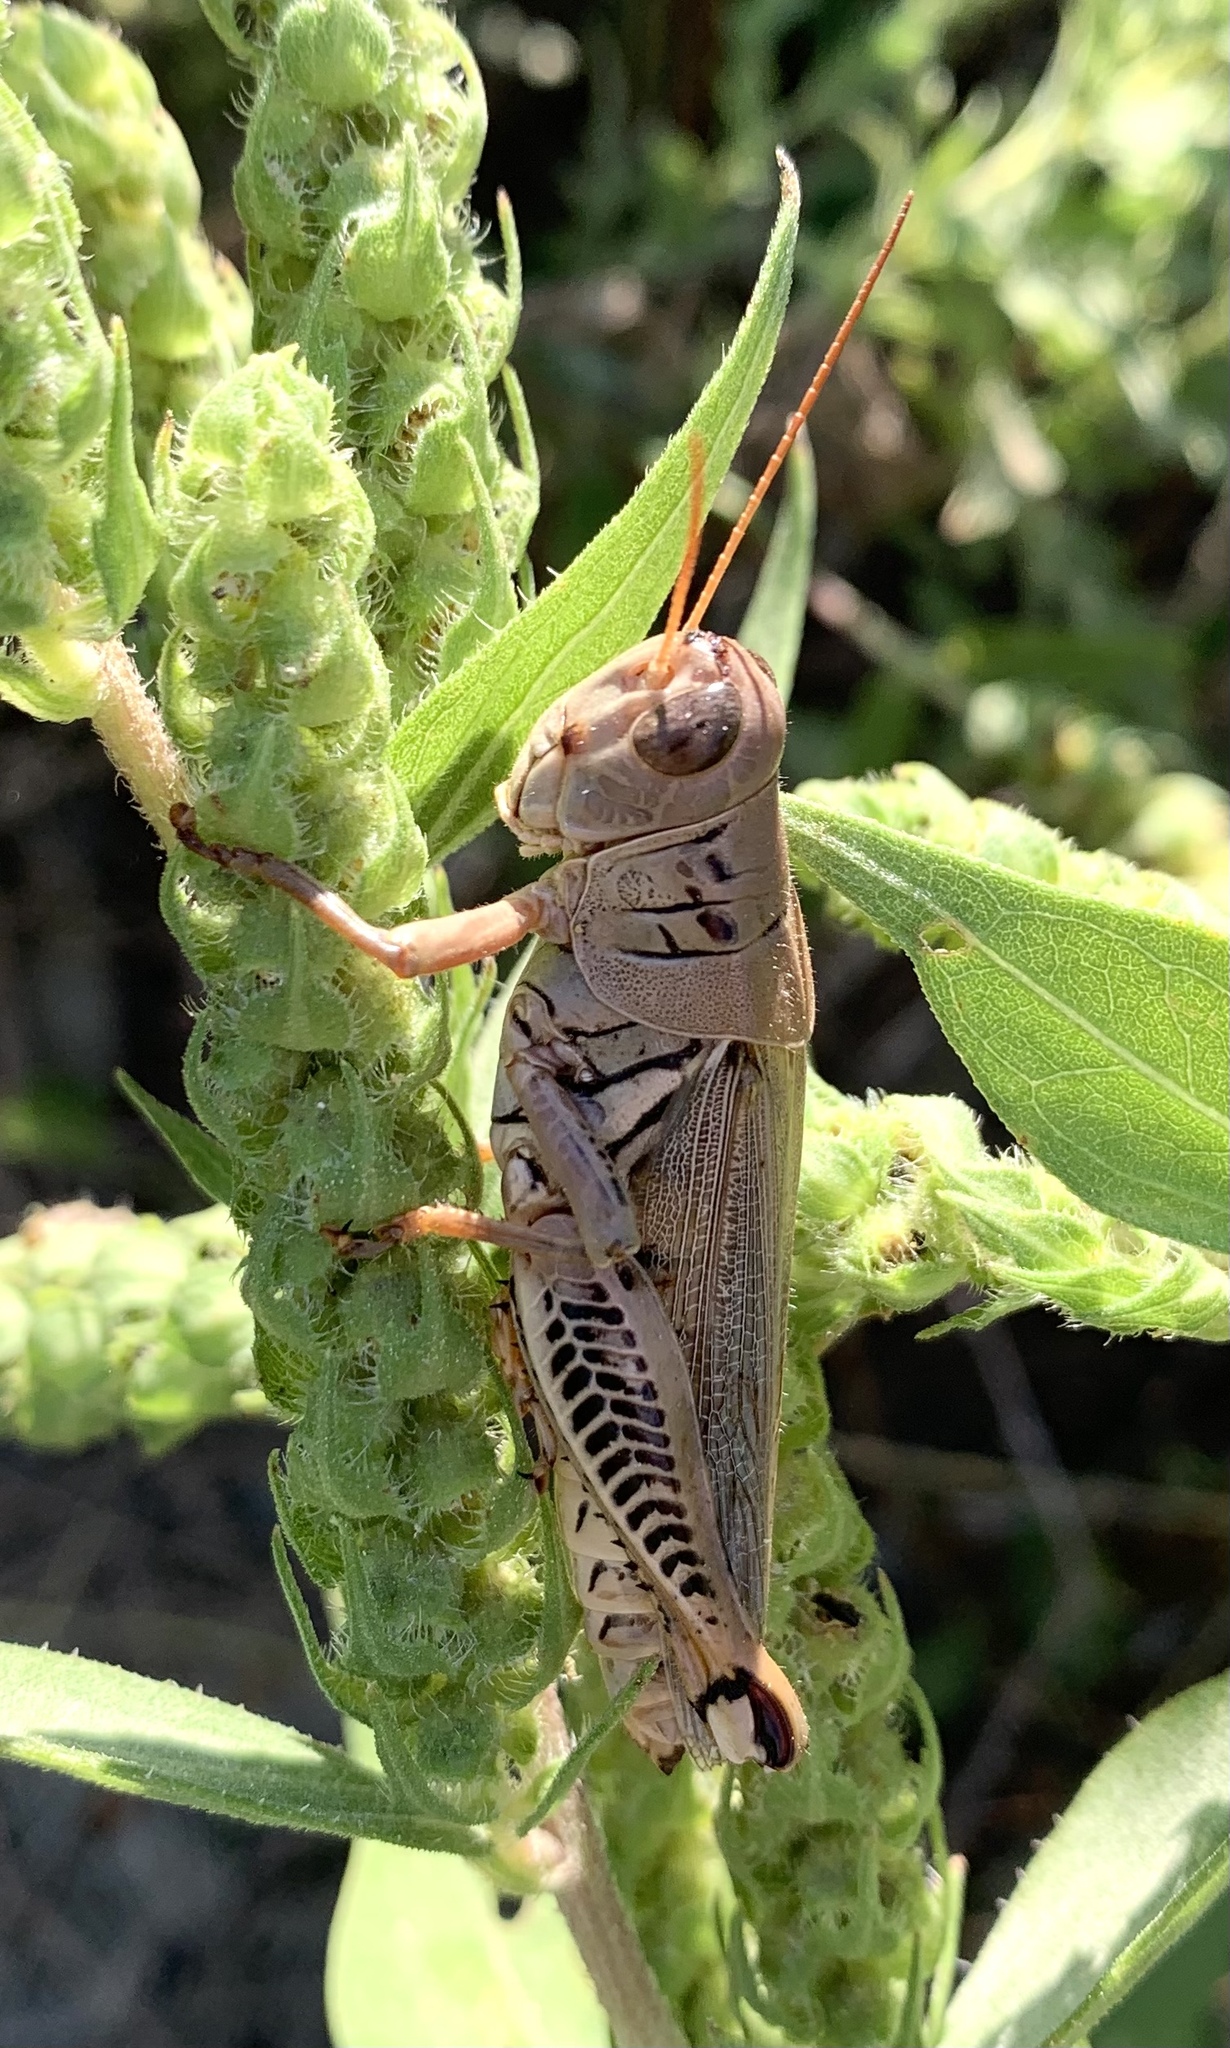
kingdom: Animalia
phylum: Arthropoda
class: Insecta
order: Orthoptera
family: Acrididae
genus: Melanoplus
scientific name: Melanoplus differentialis
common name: Differential grasshopper
